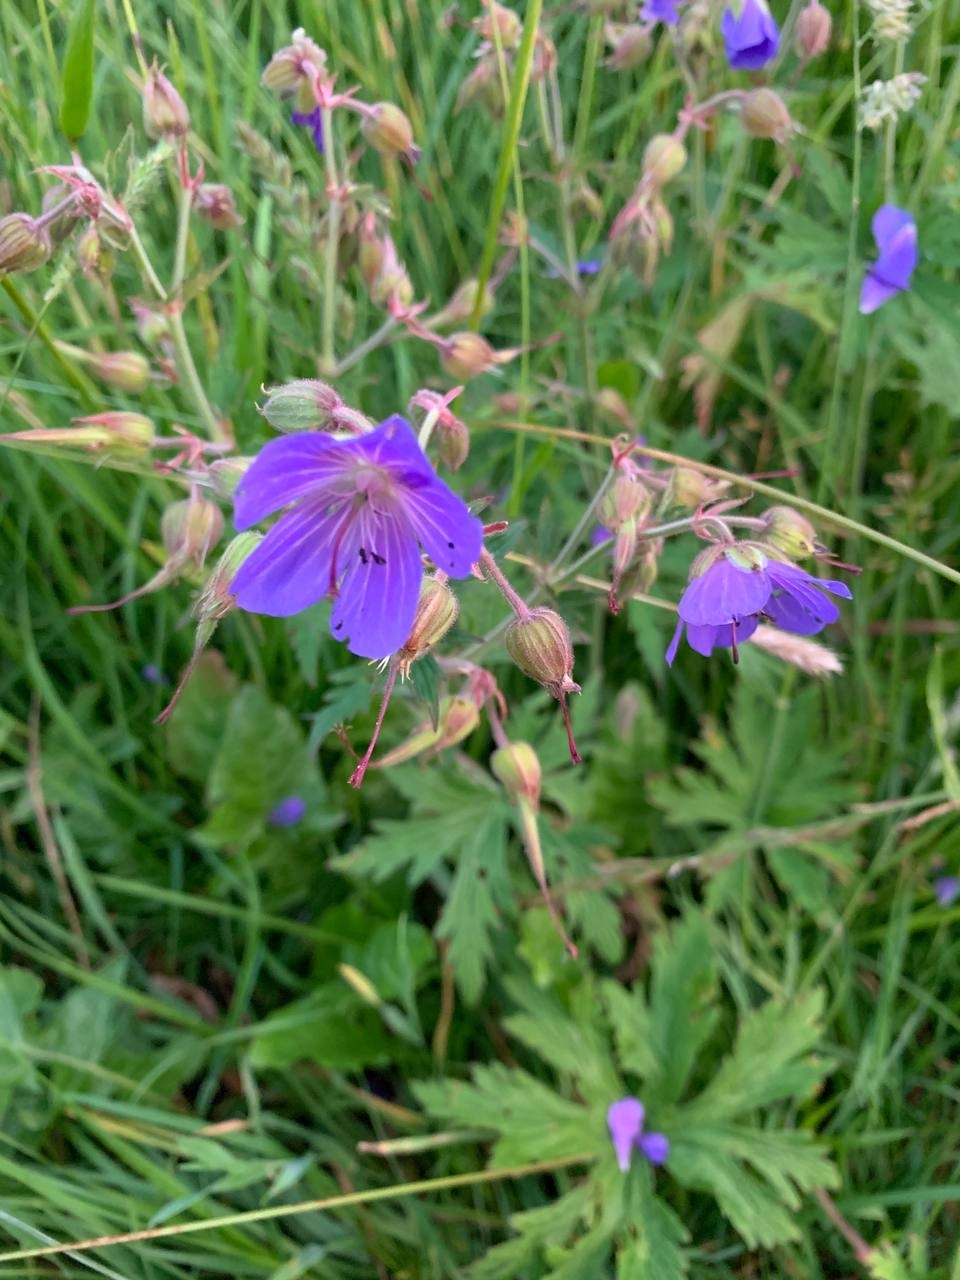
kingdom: Plantae
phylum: Tracheophyta
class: Magnoliopsida
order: Geraniales
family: Geraniaceae
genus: Geranium
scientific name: Geranium pratense
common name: Meadow crane's-bill
